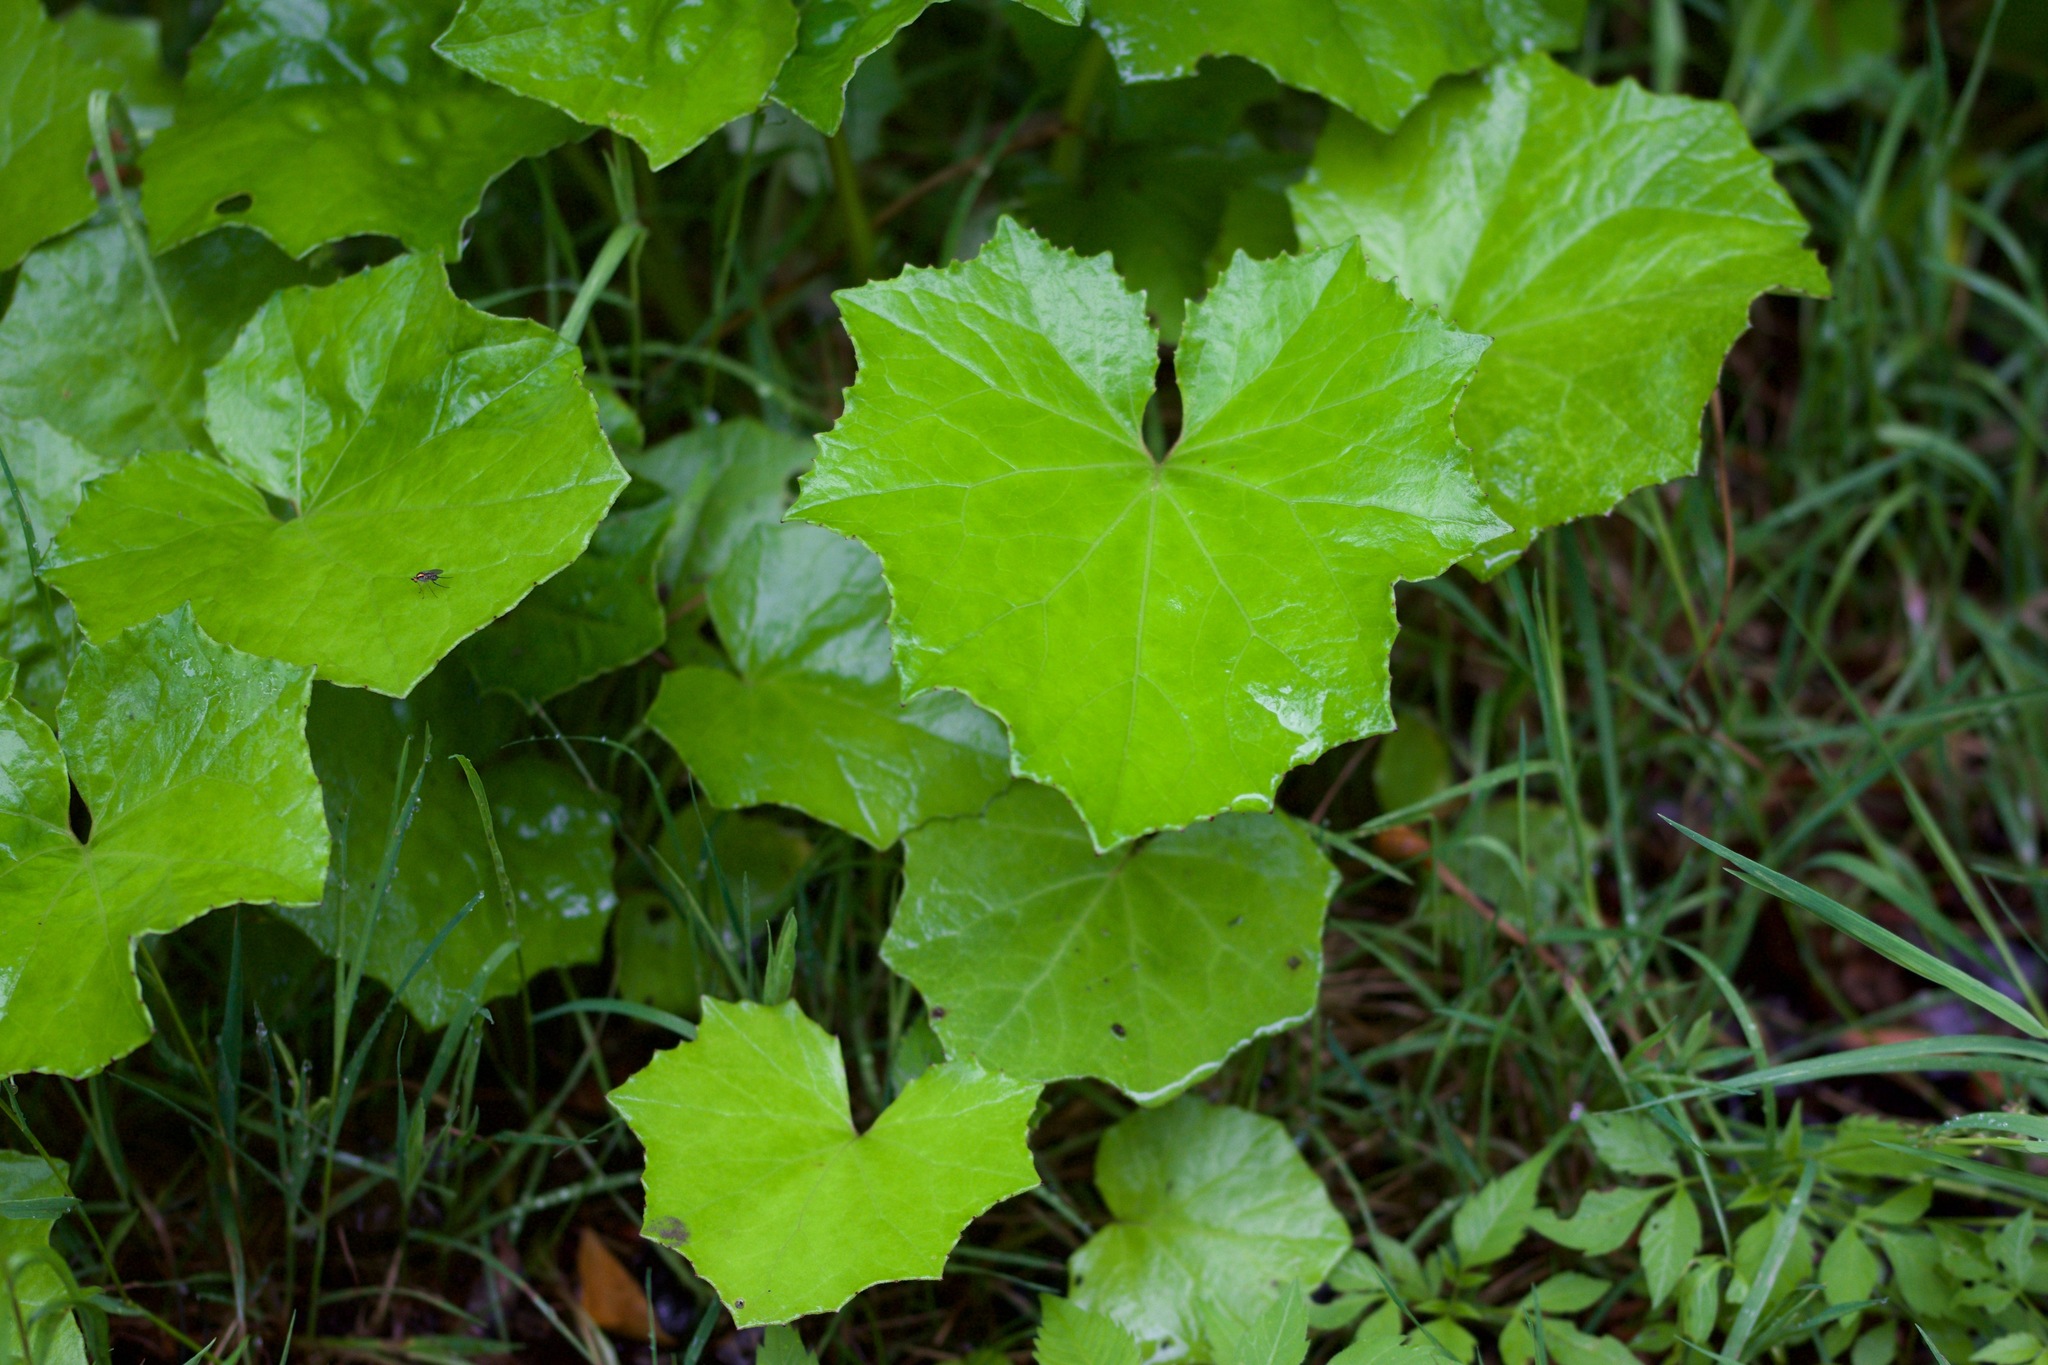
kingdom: Plantae
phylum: Tracheophyta
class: Magnoliopsida
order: Asterales
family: Asteraceae
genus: Tussilago
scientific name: Tussilago farfara
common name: Coltsfoot
